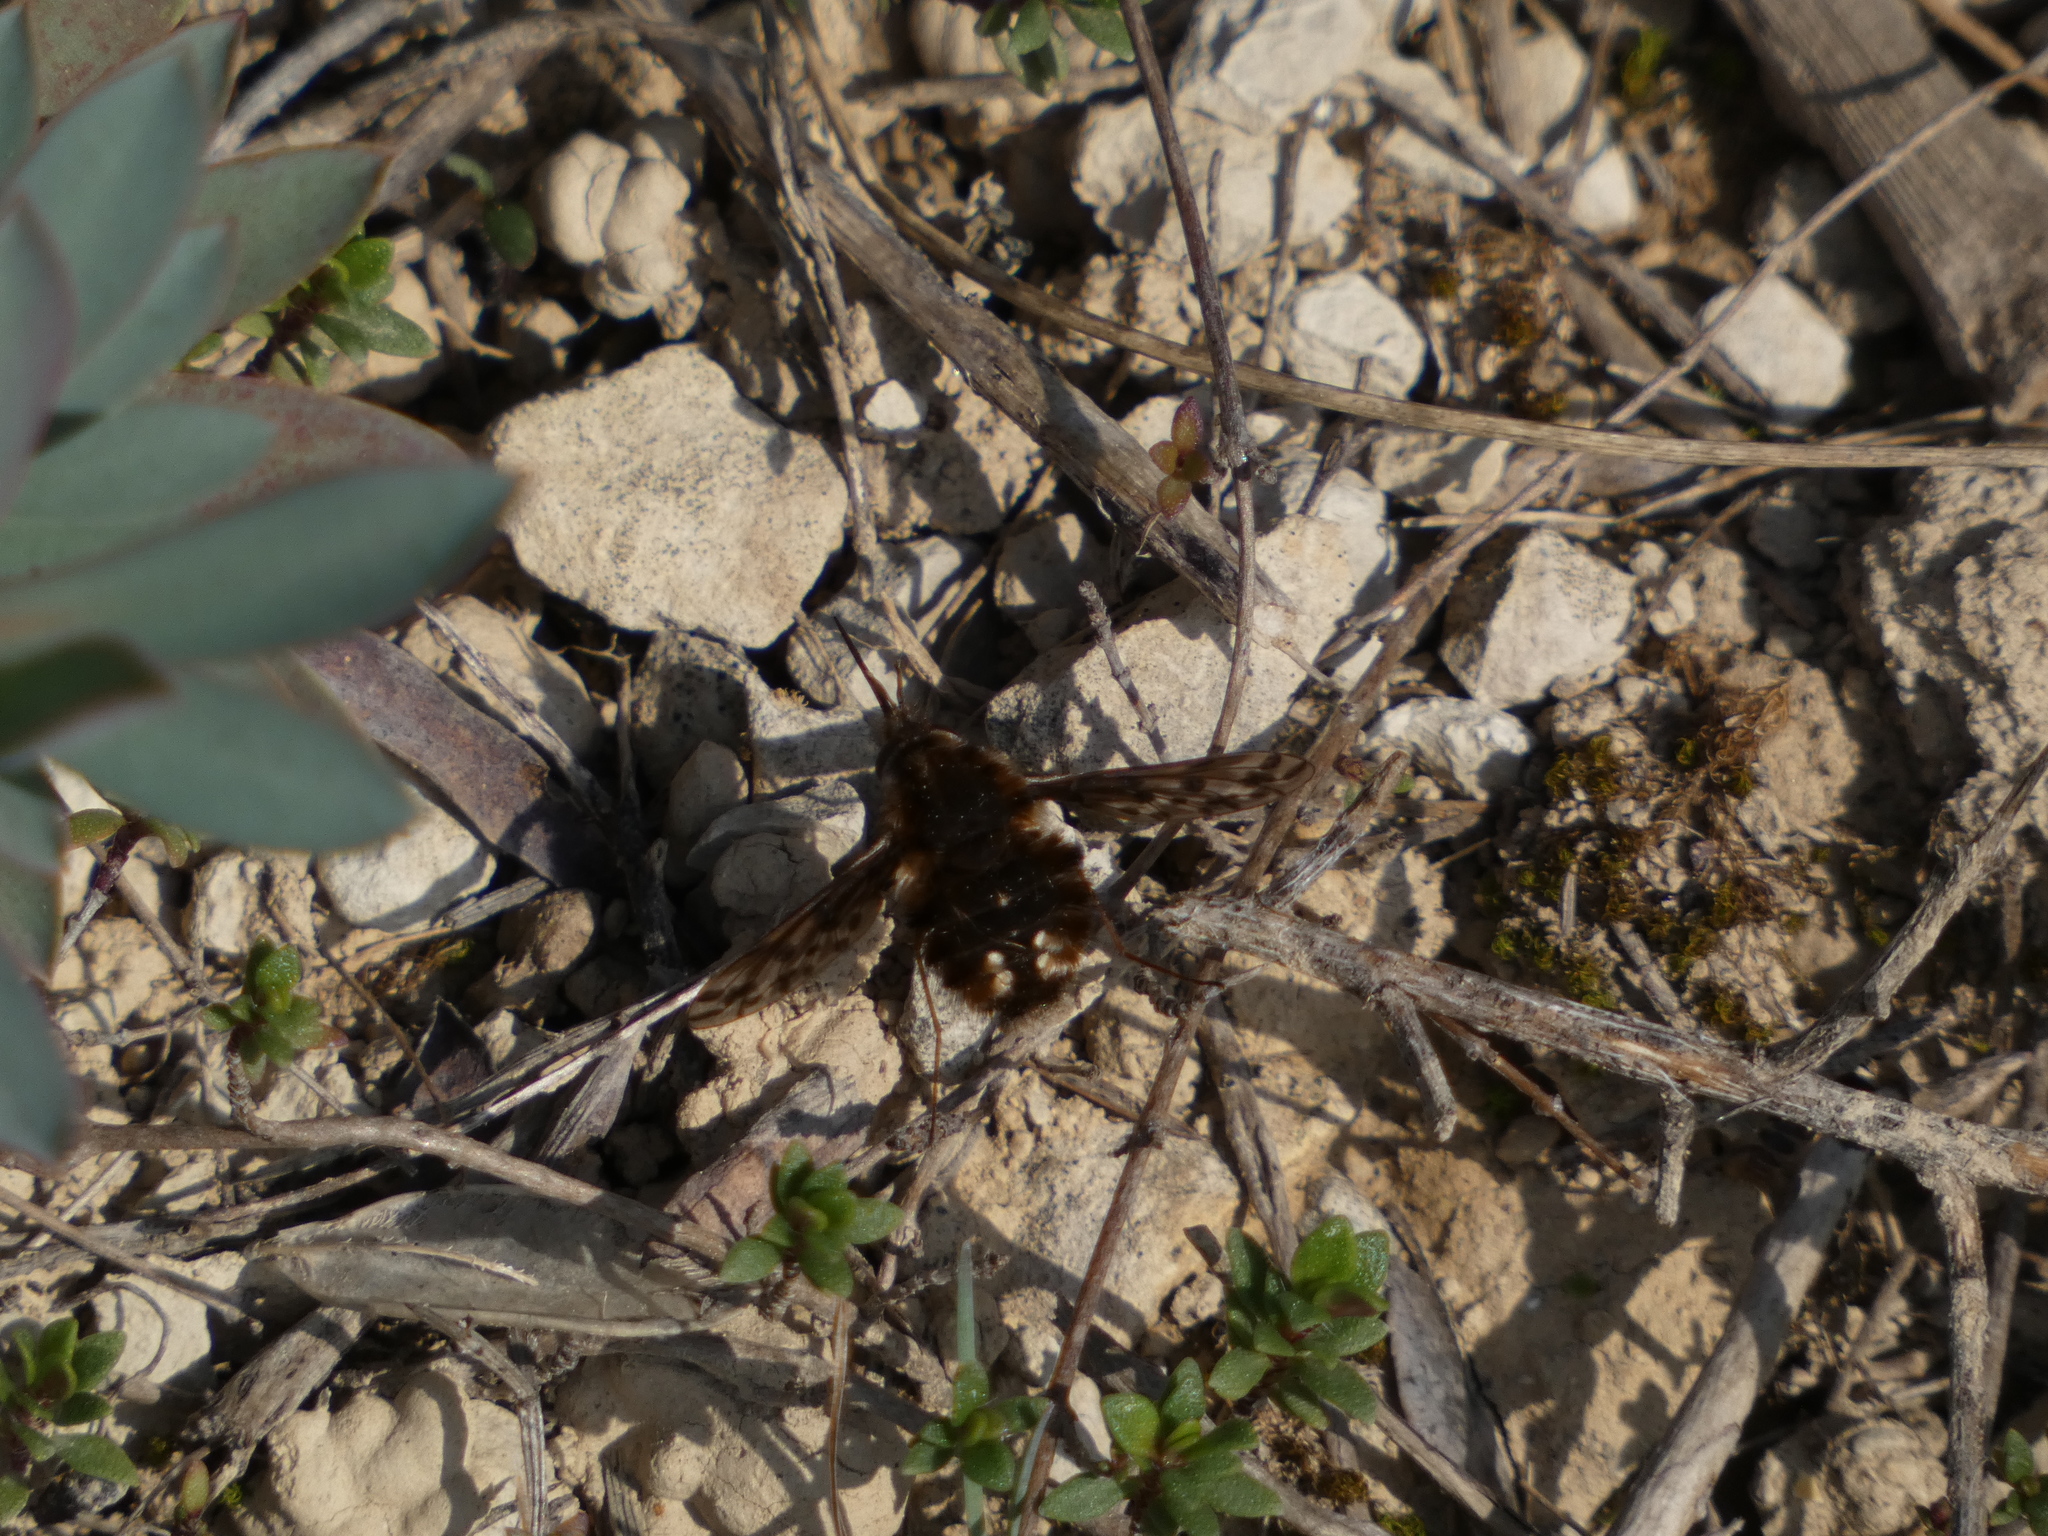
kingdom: Animalia
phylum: Arthropoda
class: Insecta
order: Diptera
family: Bombyliidae
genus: Triplasius
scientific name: Triplasius pictus
